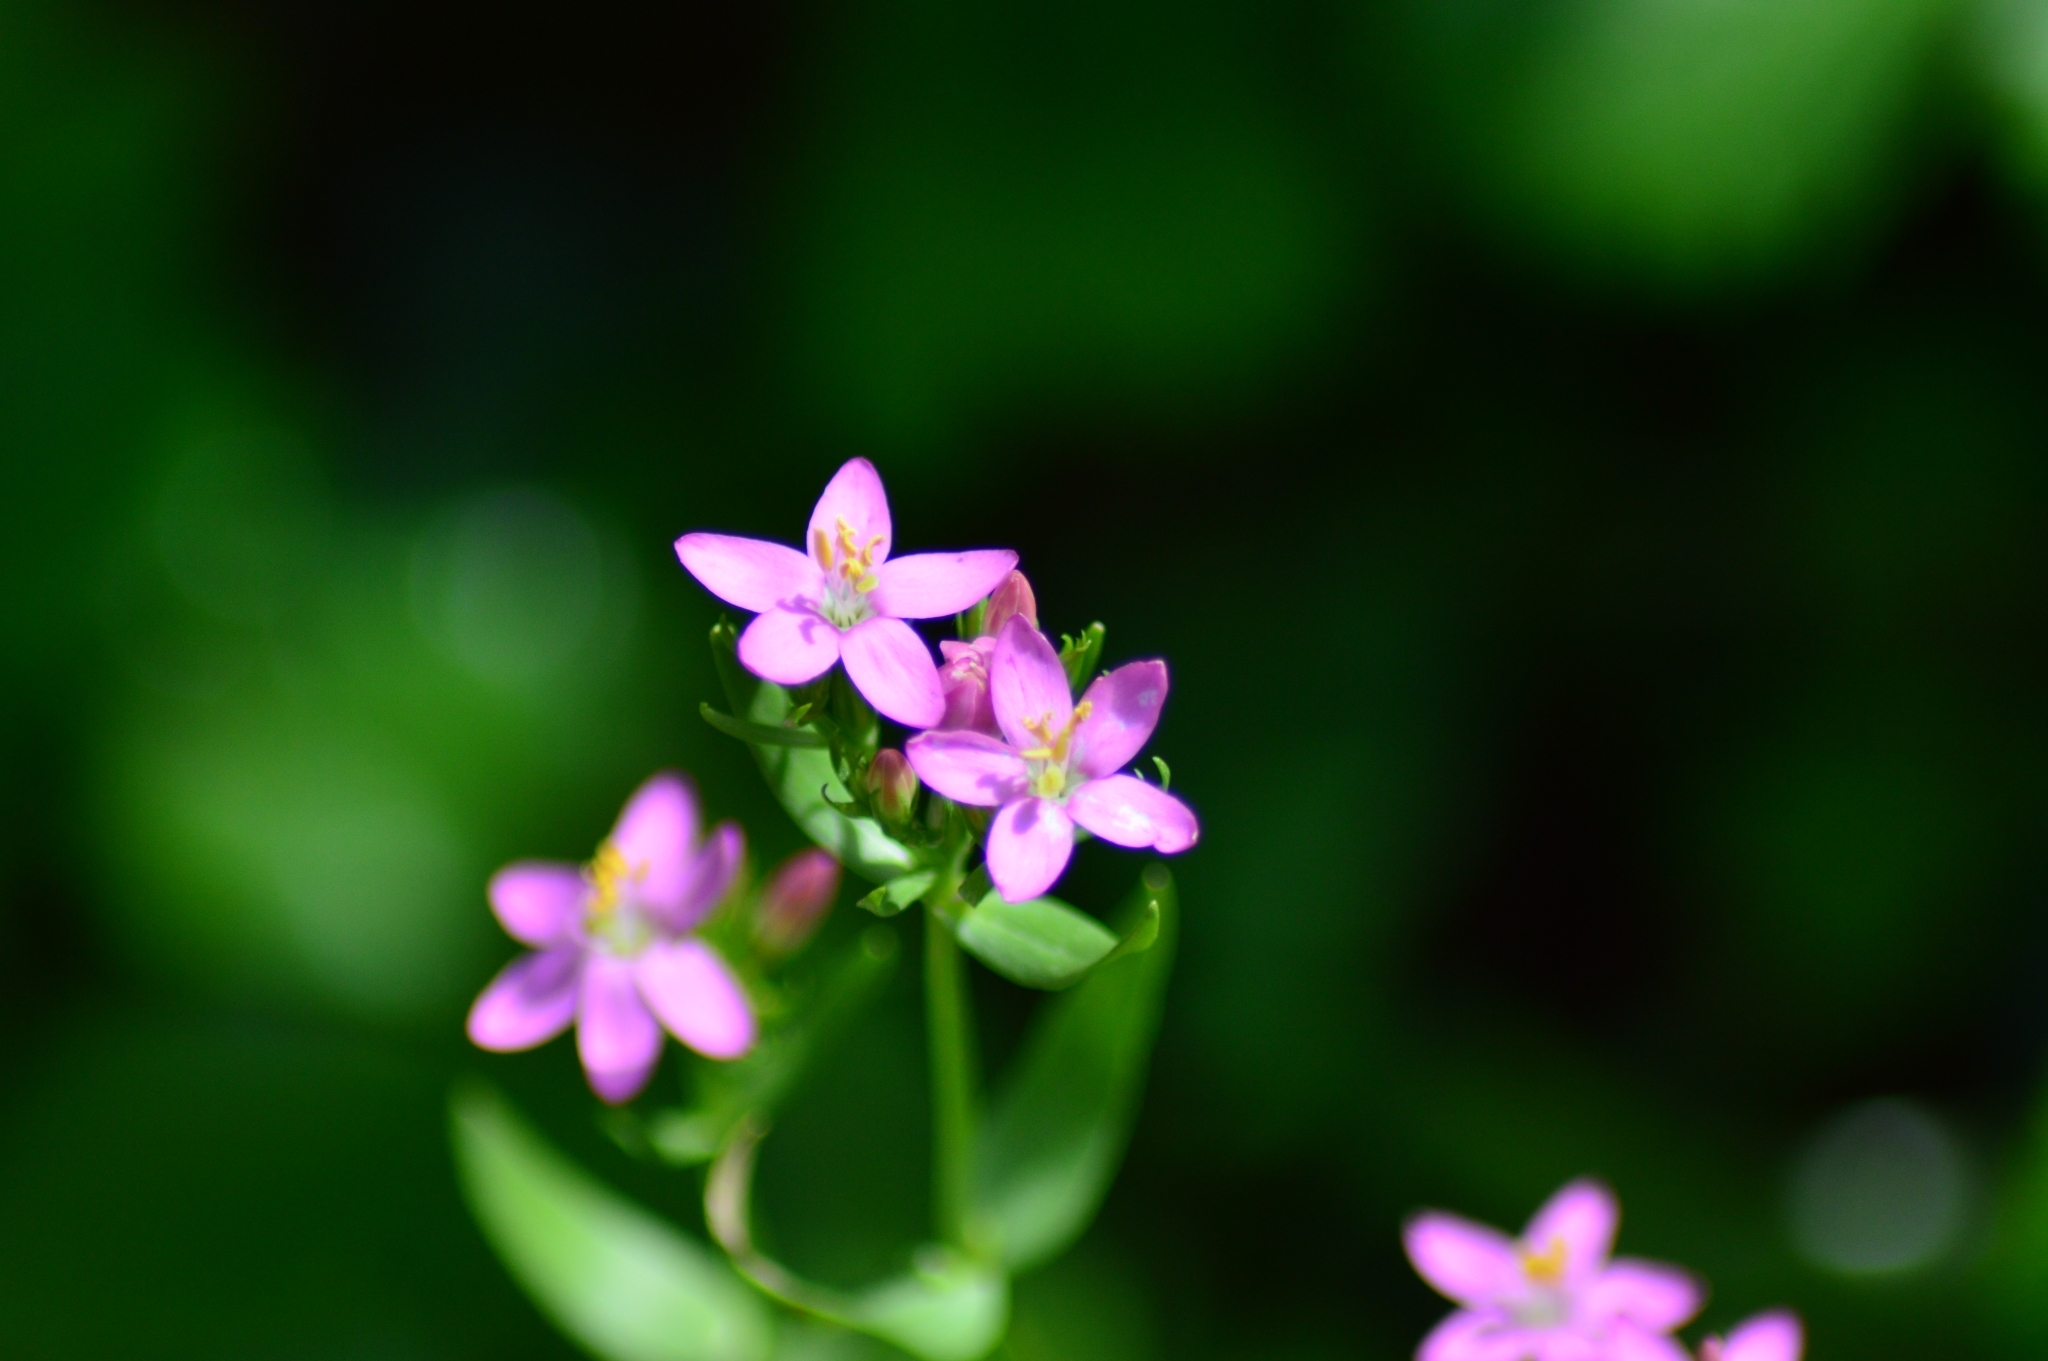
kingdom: Plantae
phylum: Tracheophyta
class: Magnoliopsida
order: Gentianales
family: Gentianaceae
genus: Centaurium
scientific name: Centaurium erythraea
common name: Common centaury
